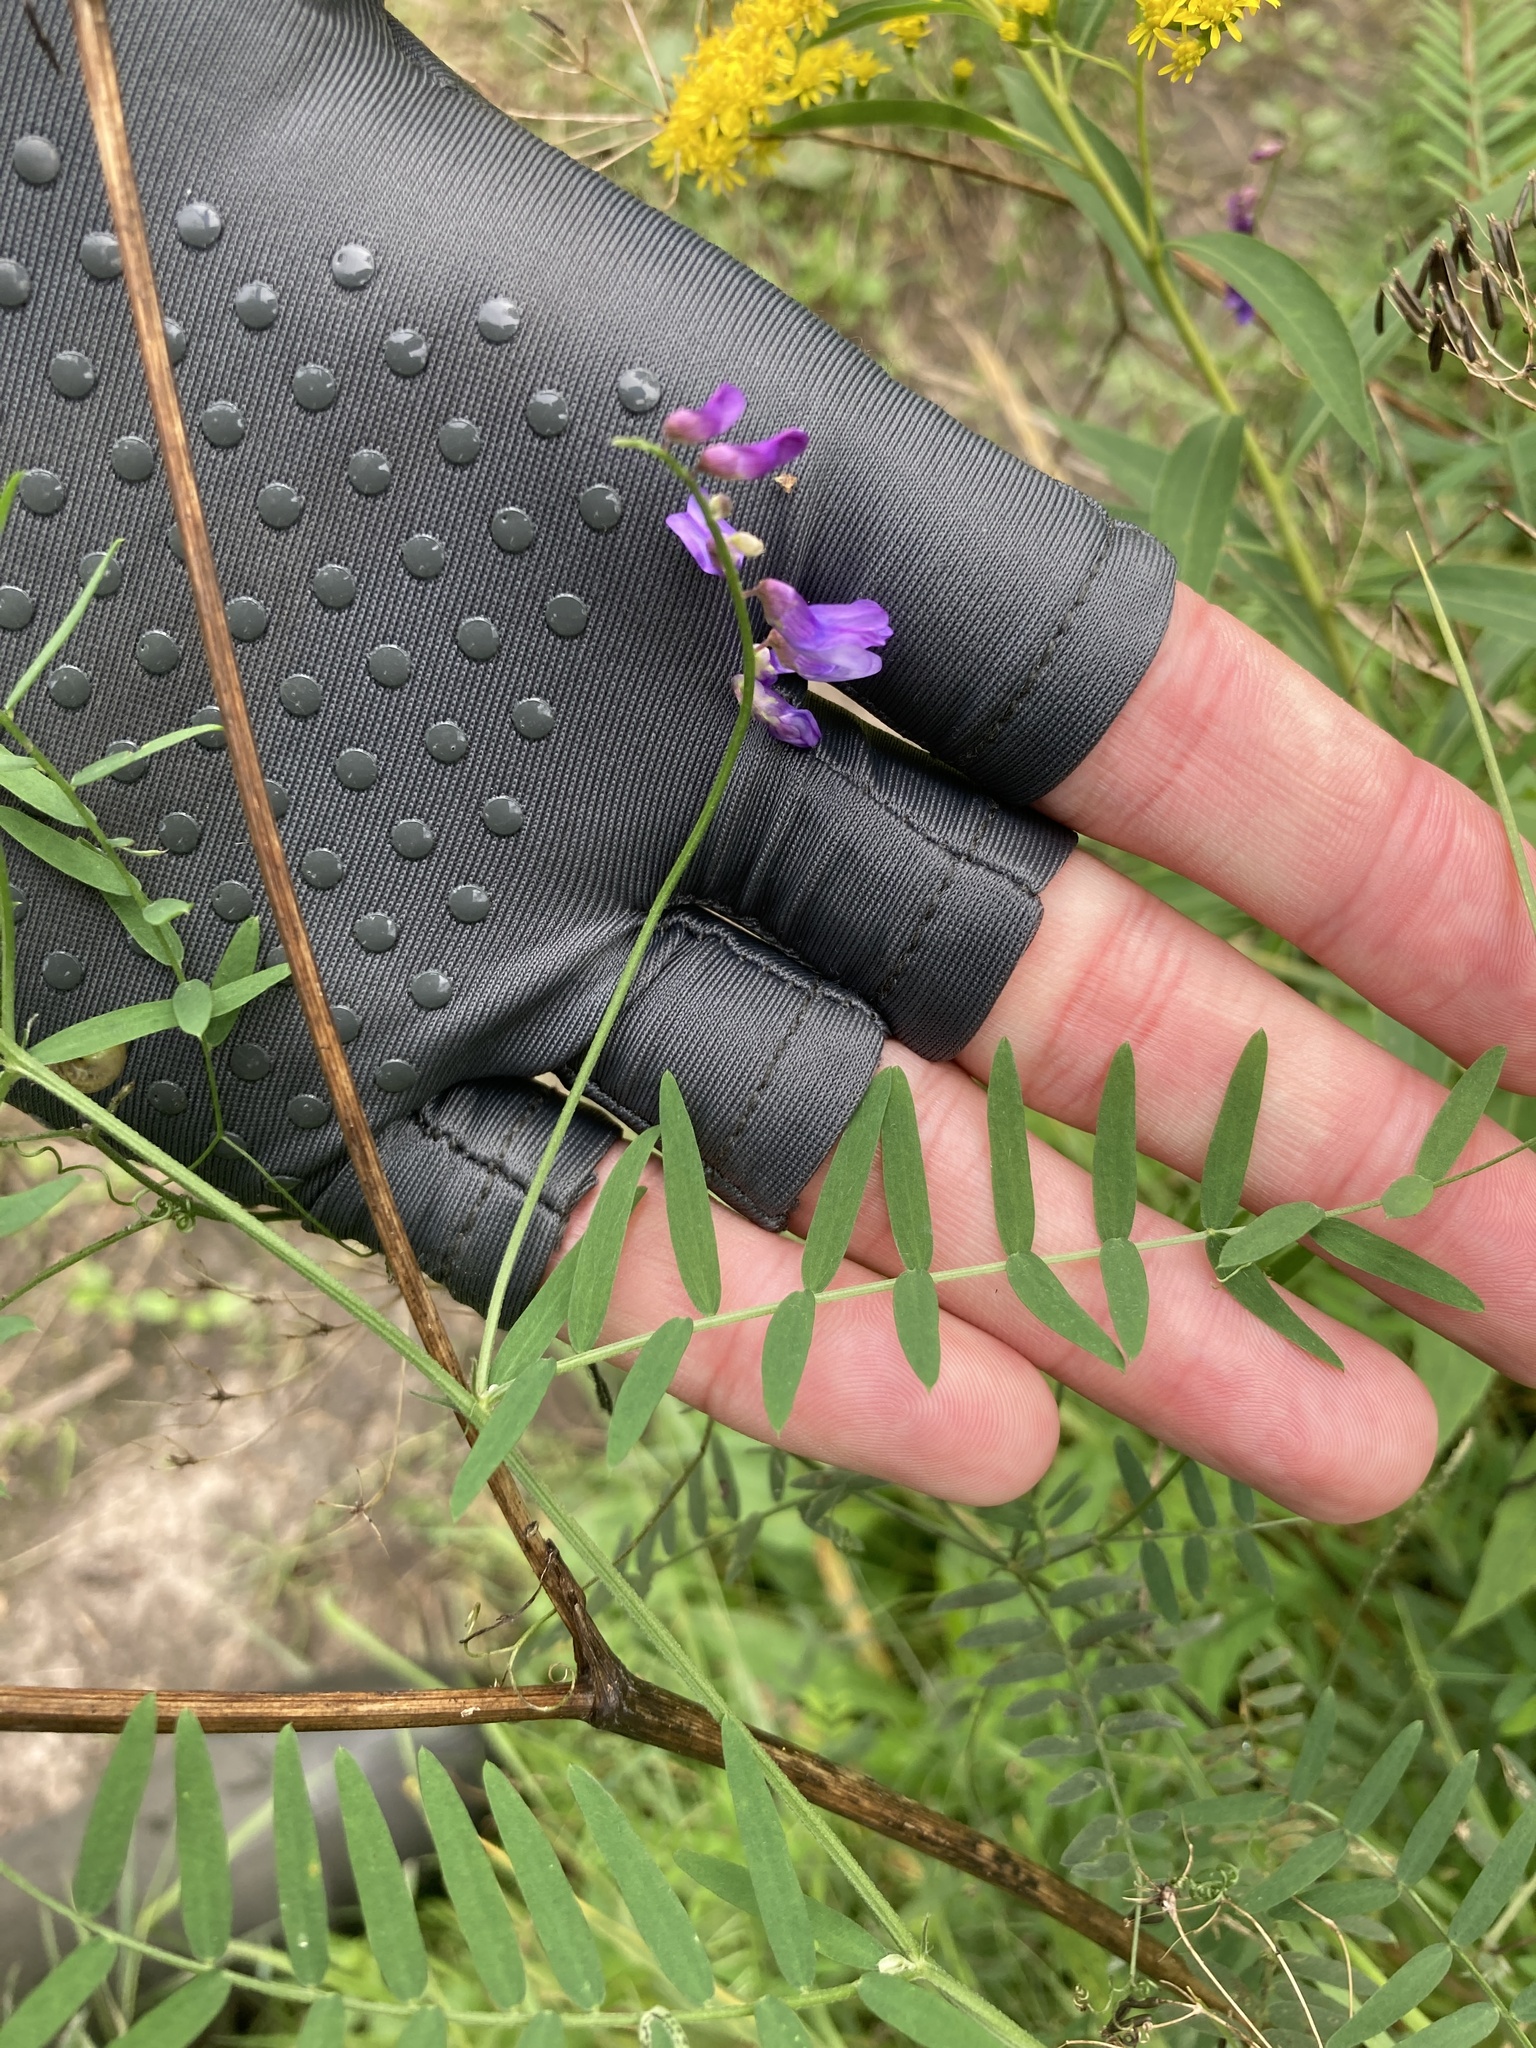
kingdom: Plantae
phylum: Tracheophyta
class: Magnoliopsida
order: Fabales
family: Fabaceae
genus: Vicia
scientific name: Vicia cracca
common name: Bird vetch
